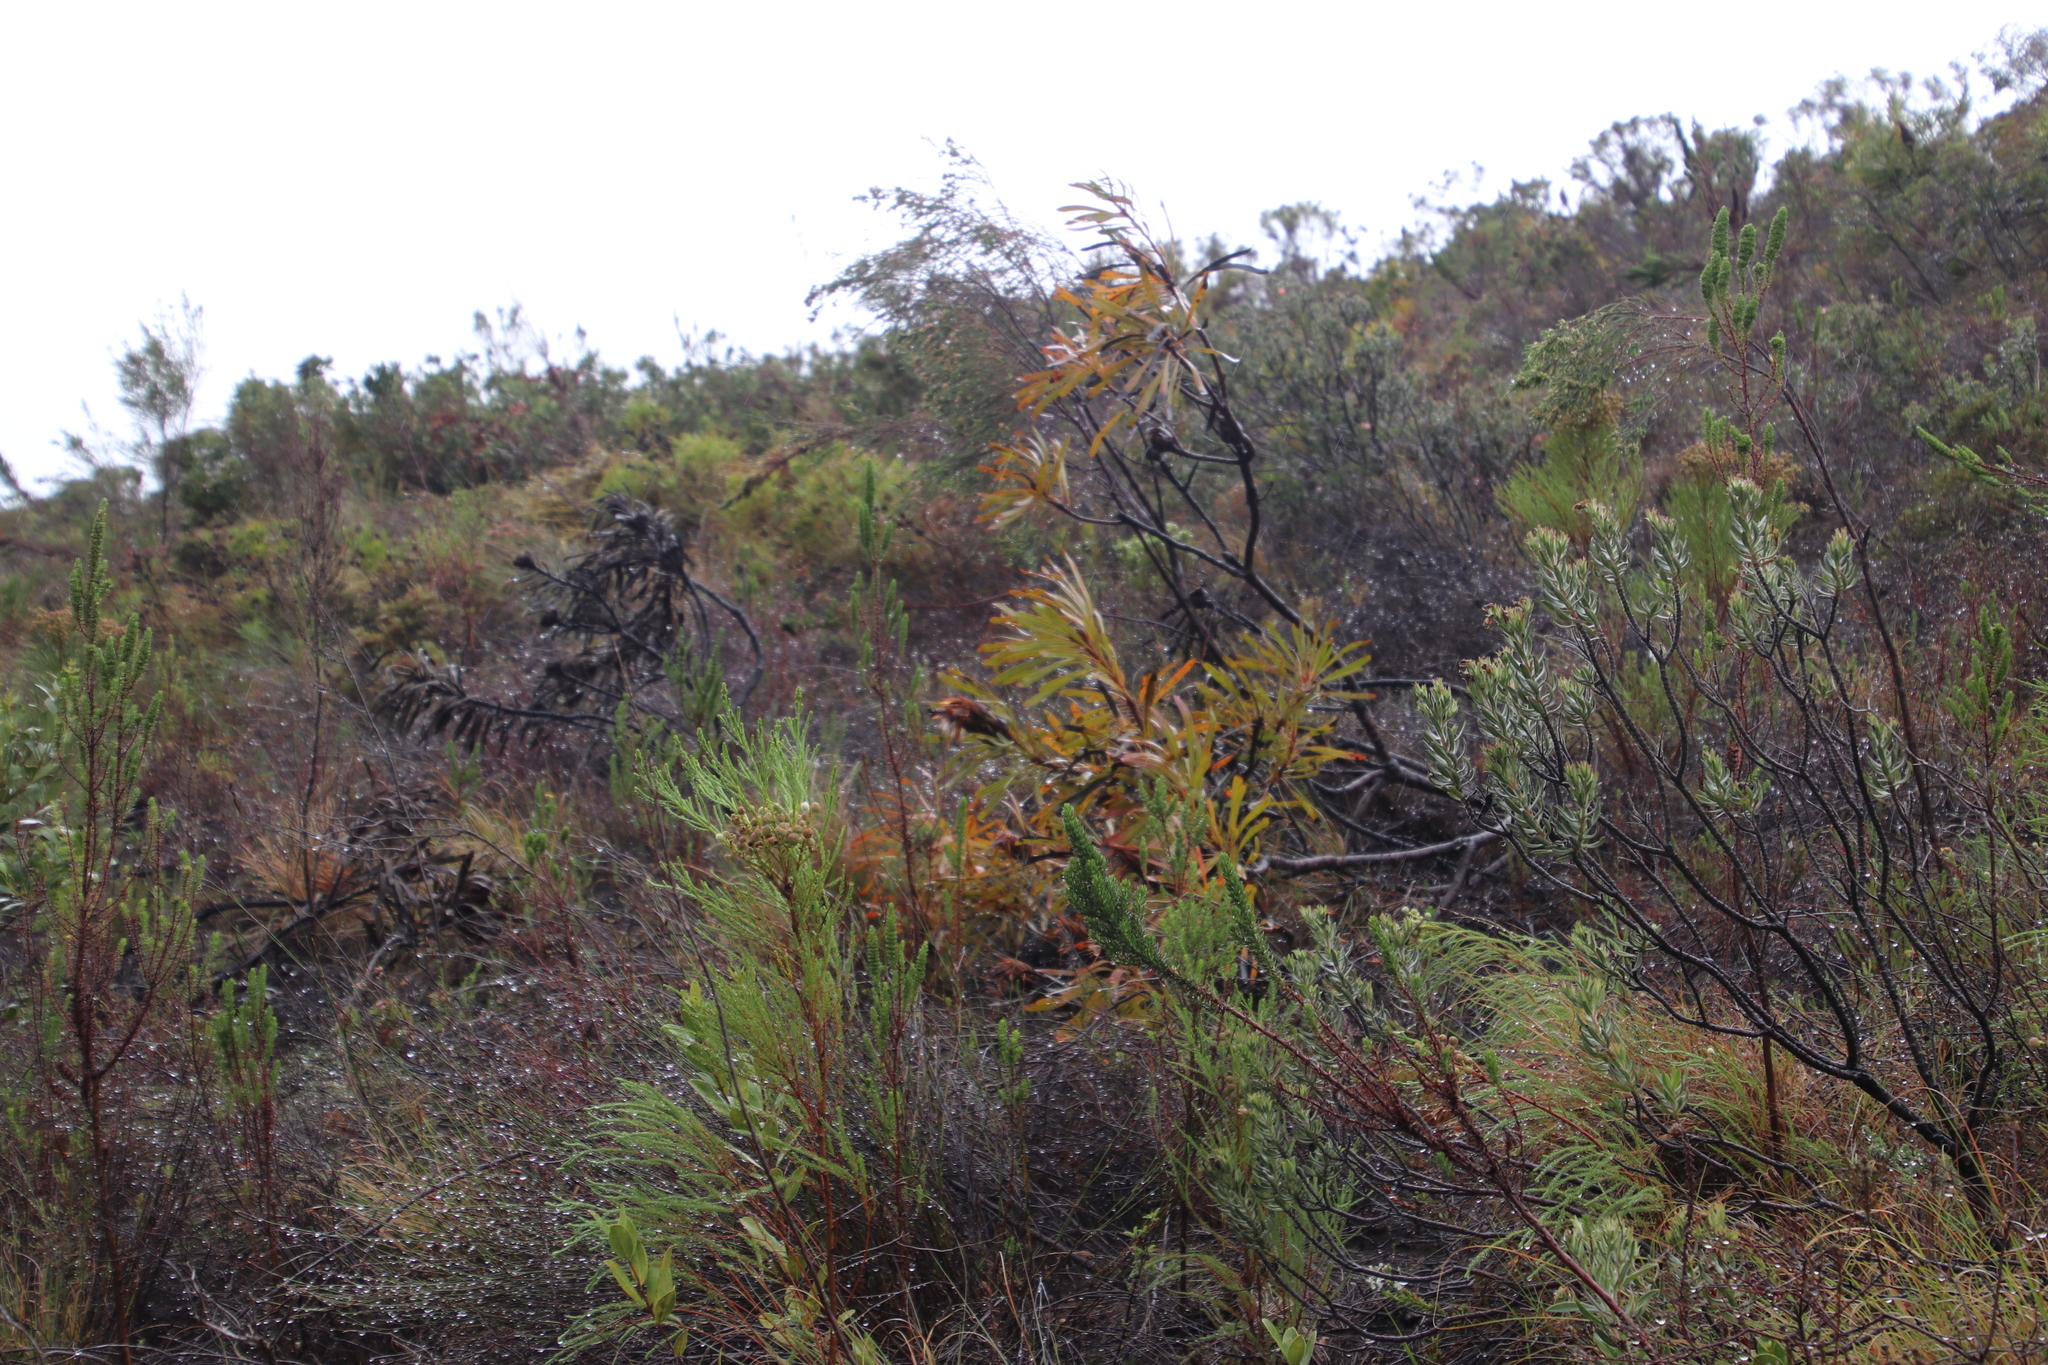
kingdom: Plantae
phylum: Tracheophyta
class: Magnoliopsida
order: Proteales
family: Proteaceae
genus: Protea
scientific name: Protea longifolia
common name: Long-leaf sugarbush
